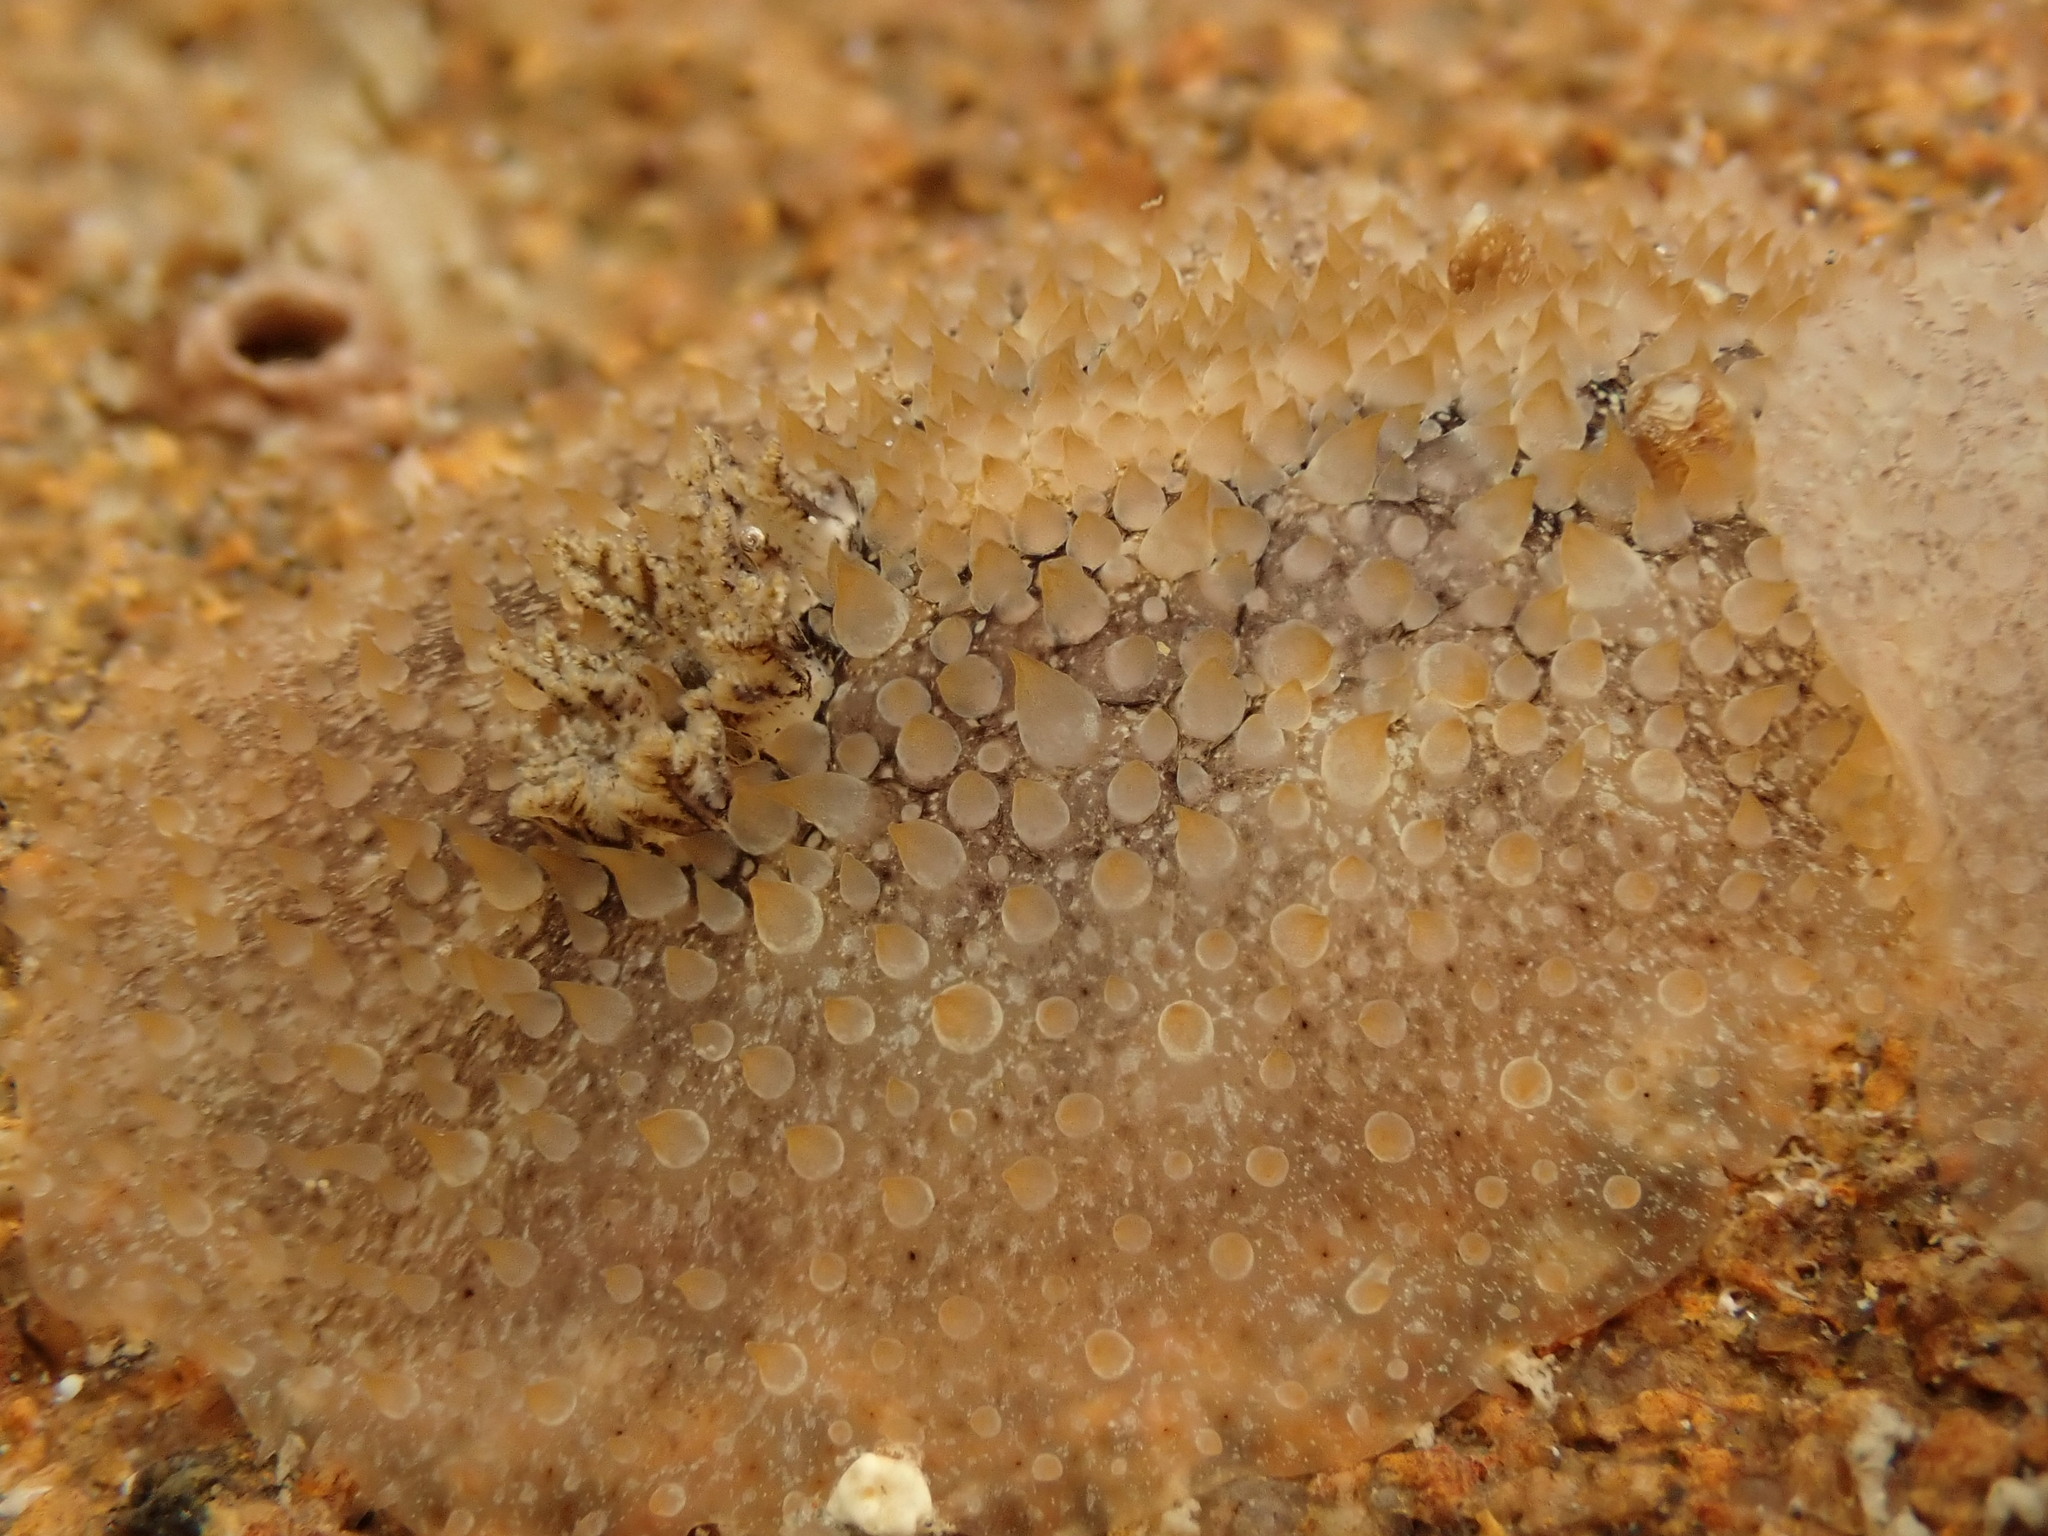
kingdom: Animalia
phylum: Mollusca
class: Gastropoda
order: Nudibranchia
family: Onchidorididae
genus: Acanthodoris
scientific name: Acanthodoris mollicella
